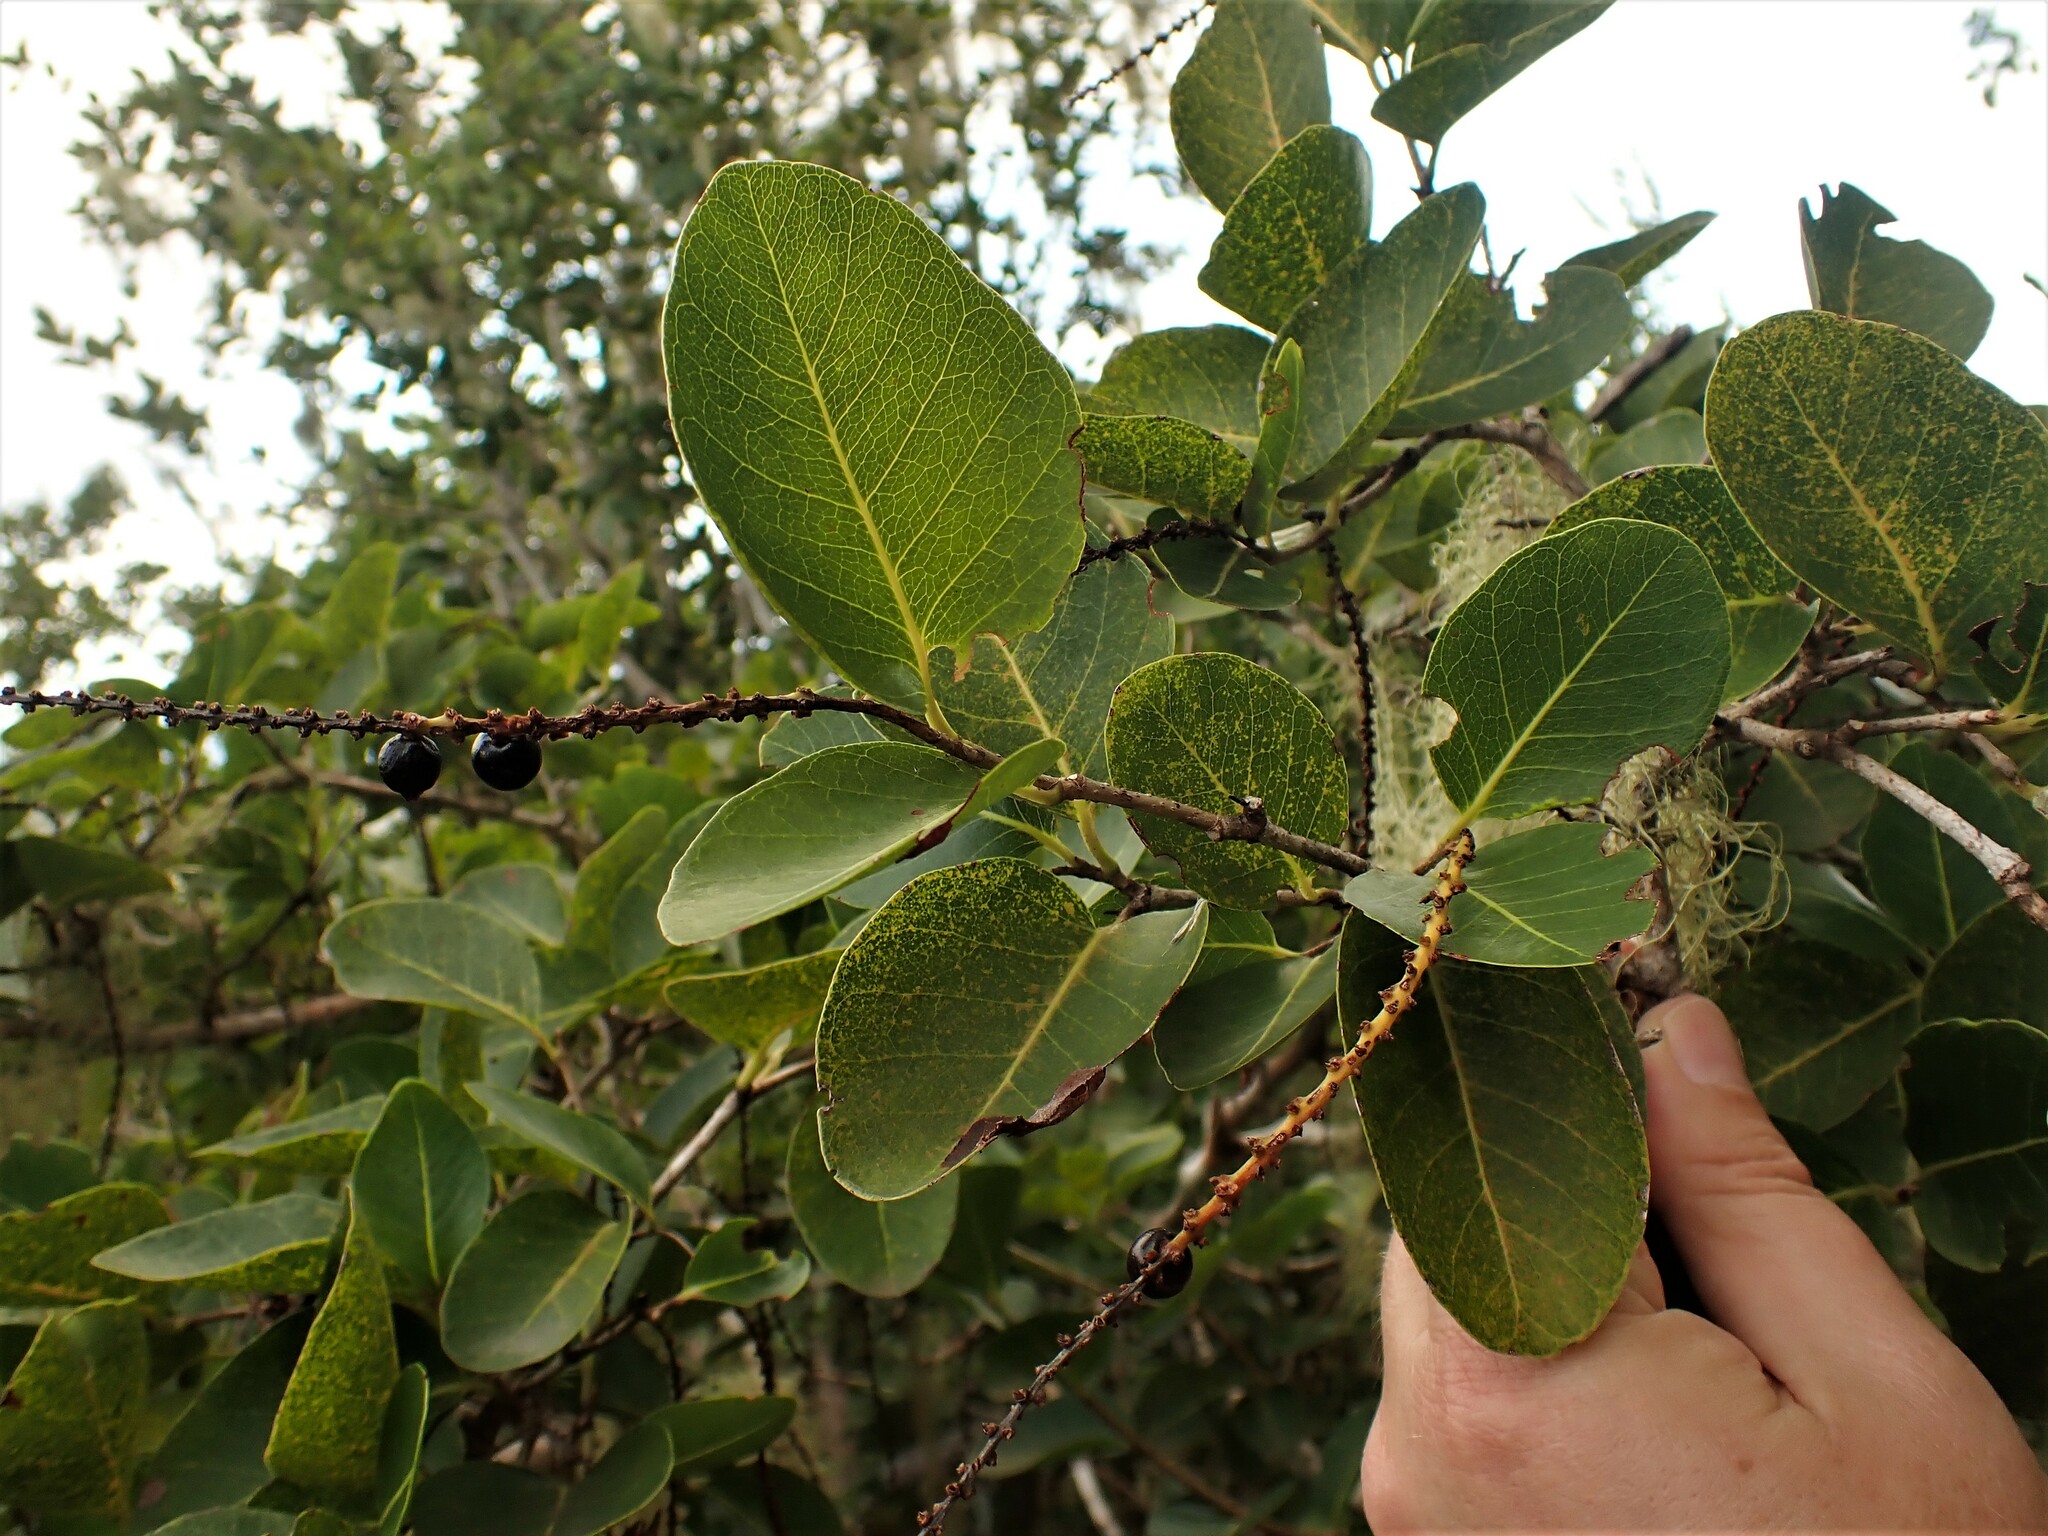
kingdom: Plantae
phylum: Tracheophyta
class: Magnoliopsida
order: Caryophyllales
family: Polygonaceae
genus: Coccoloba
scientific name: Coccoloba swartzii
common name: Red wood
